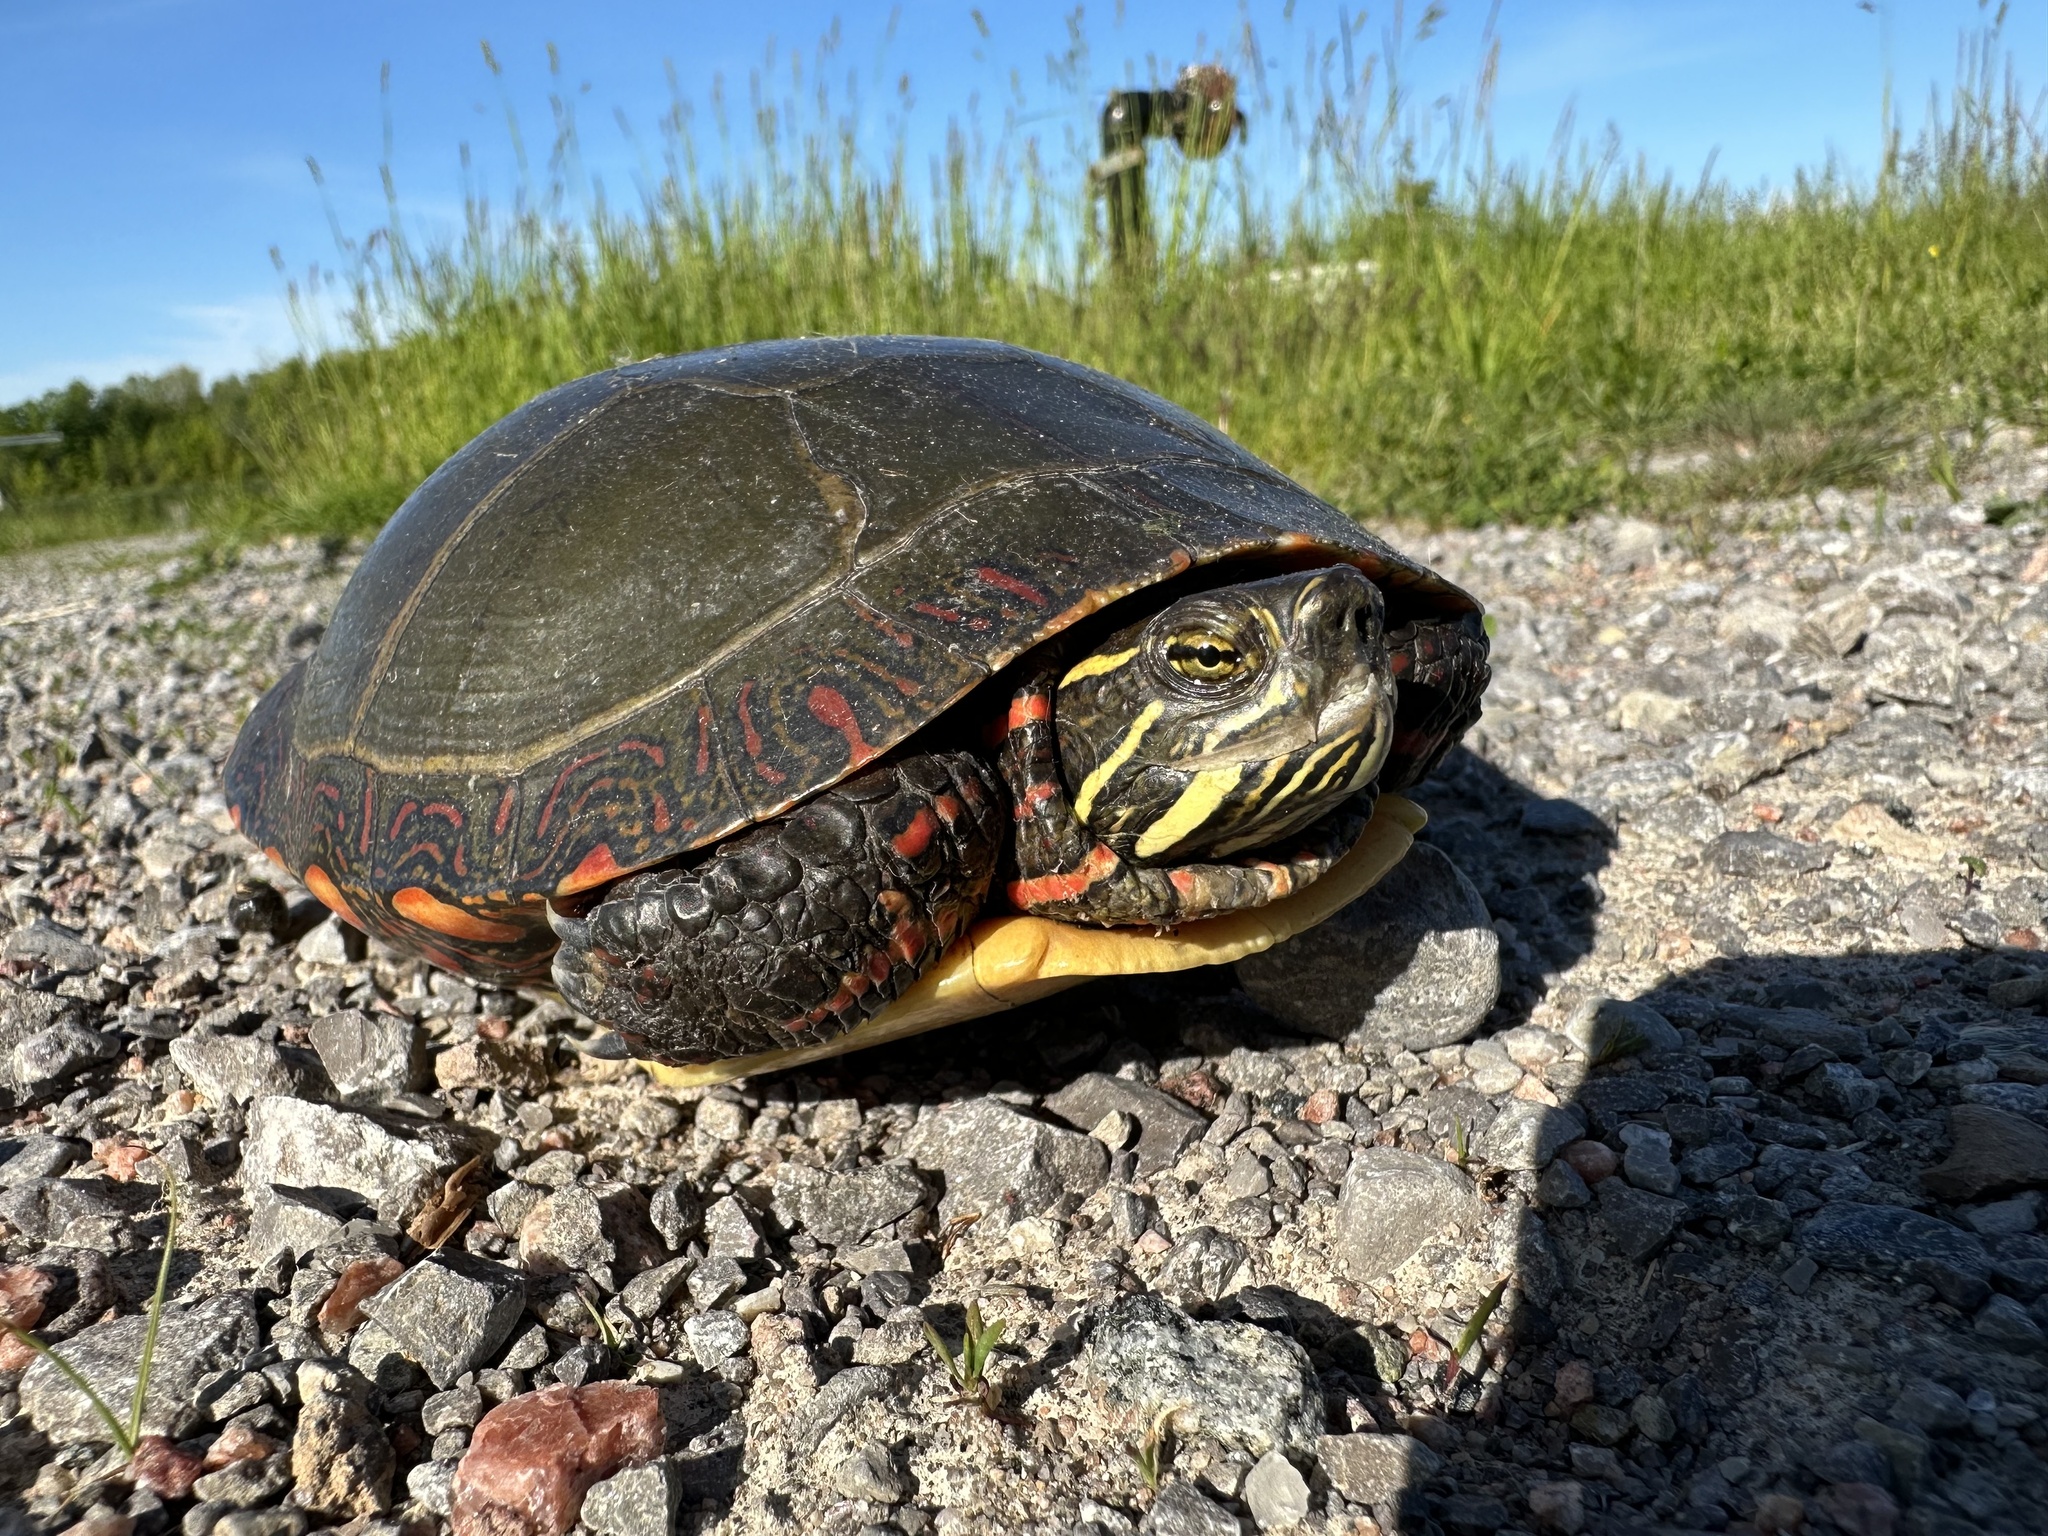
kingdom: Animalia
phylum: Chordata
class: Testudines
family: Emydidae
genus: Chrysemys
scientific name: Chrysemys picta
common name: Painted turtle
